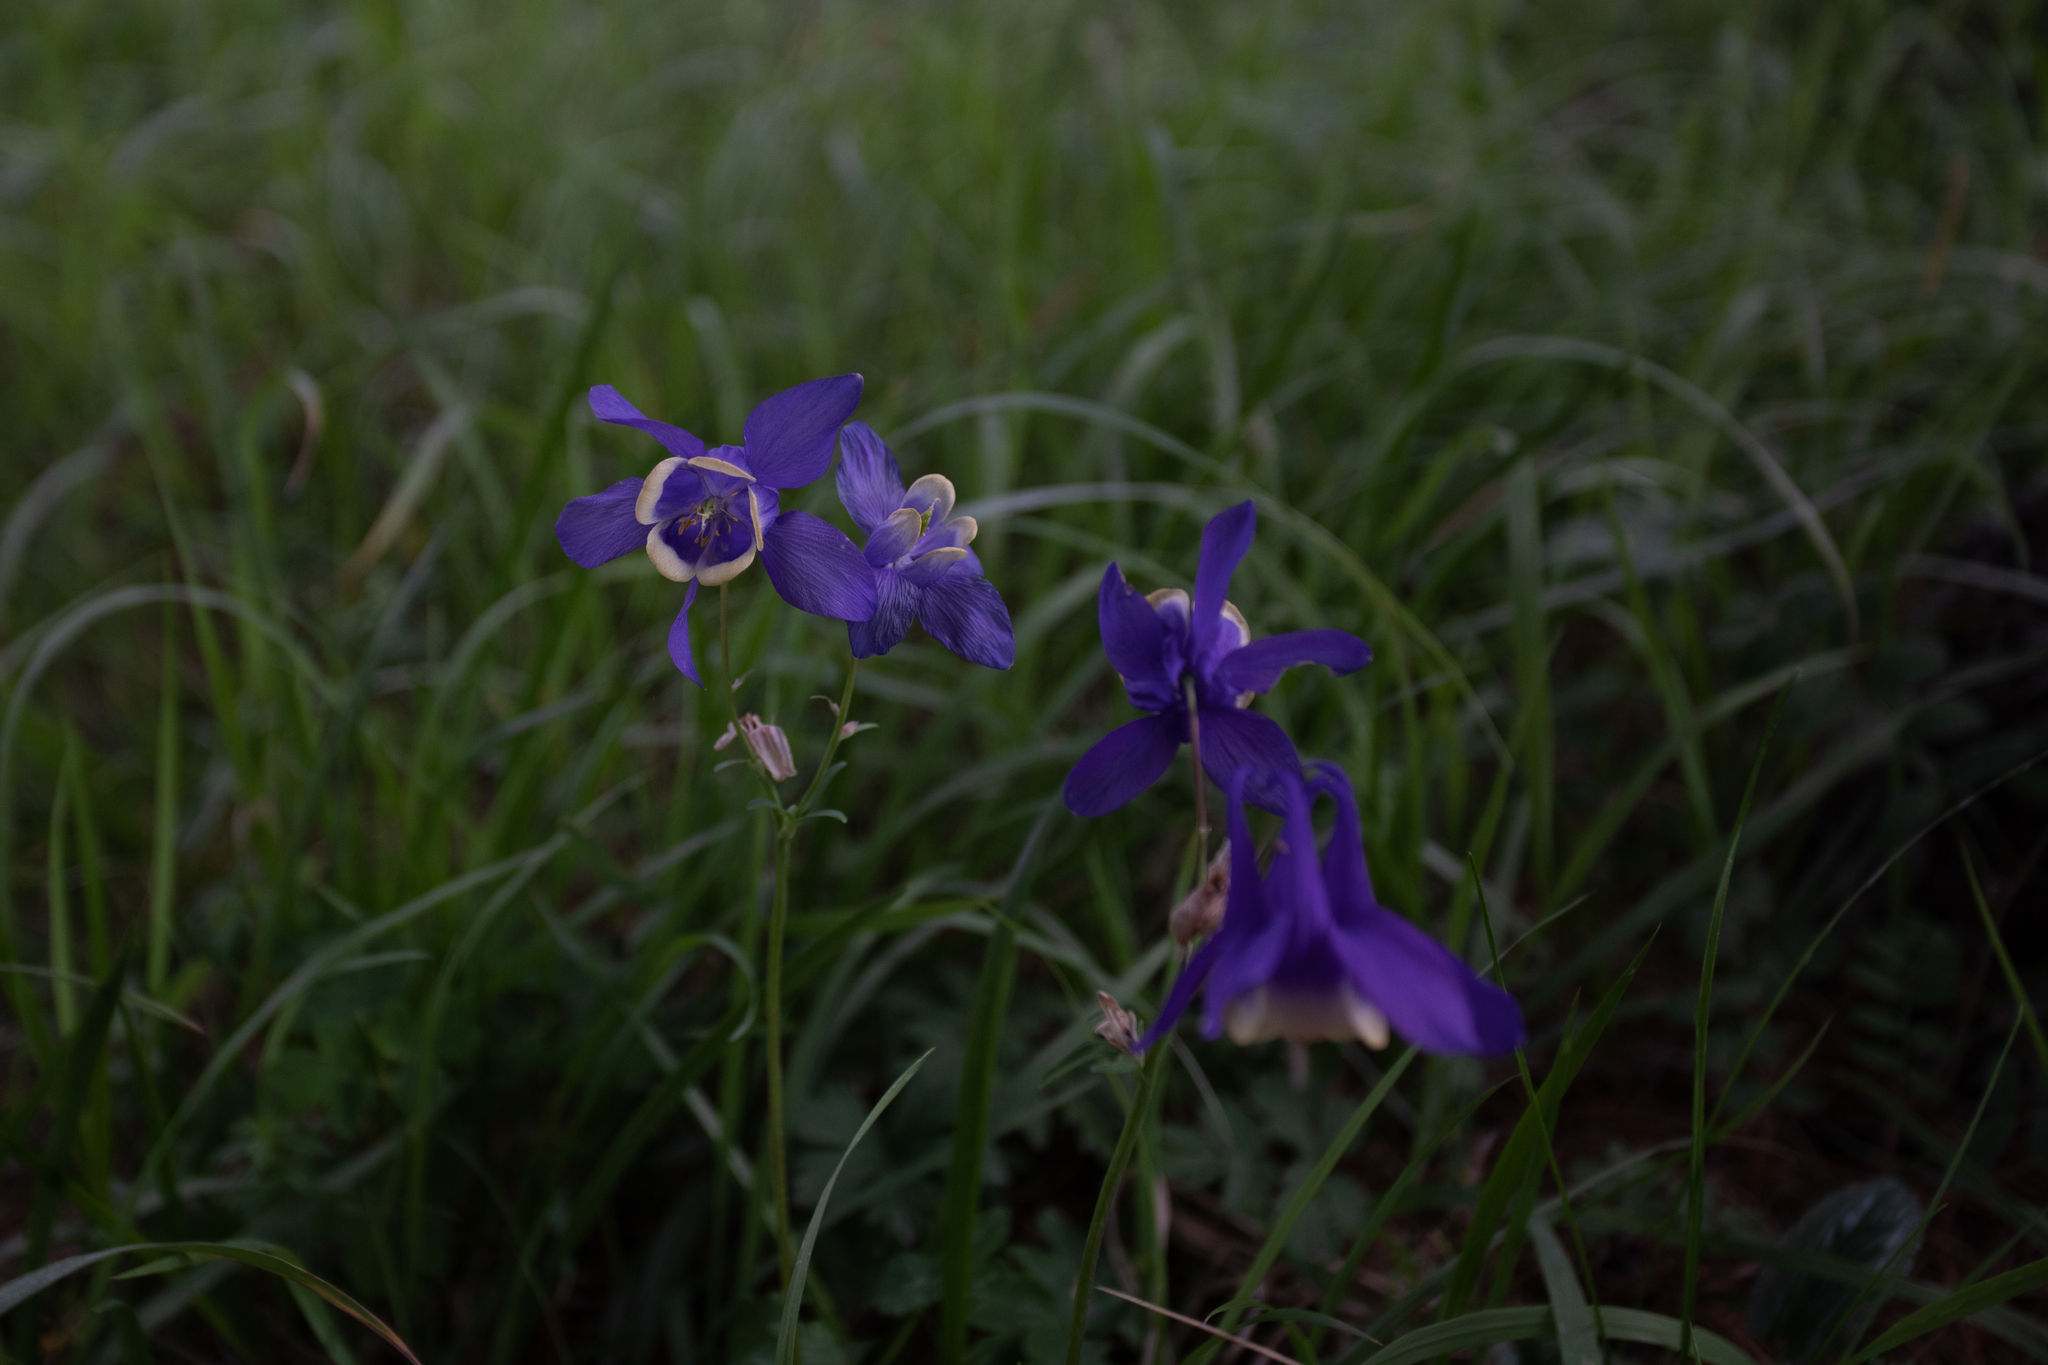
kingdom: Plantae
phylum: Tracheophyta
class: Magnoliopsida
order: Ranunculales
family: Ranunculaceae
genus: Aquilegia
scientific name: Aquilegia sibirica
